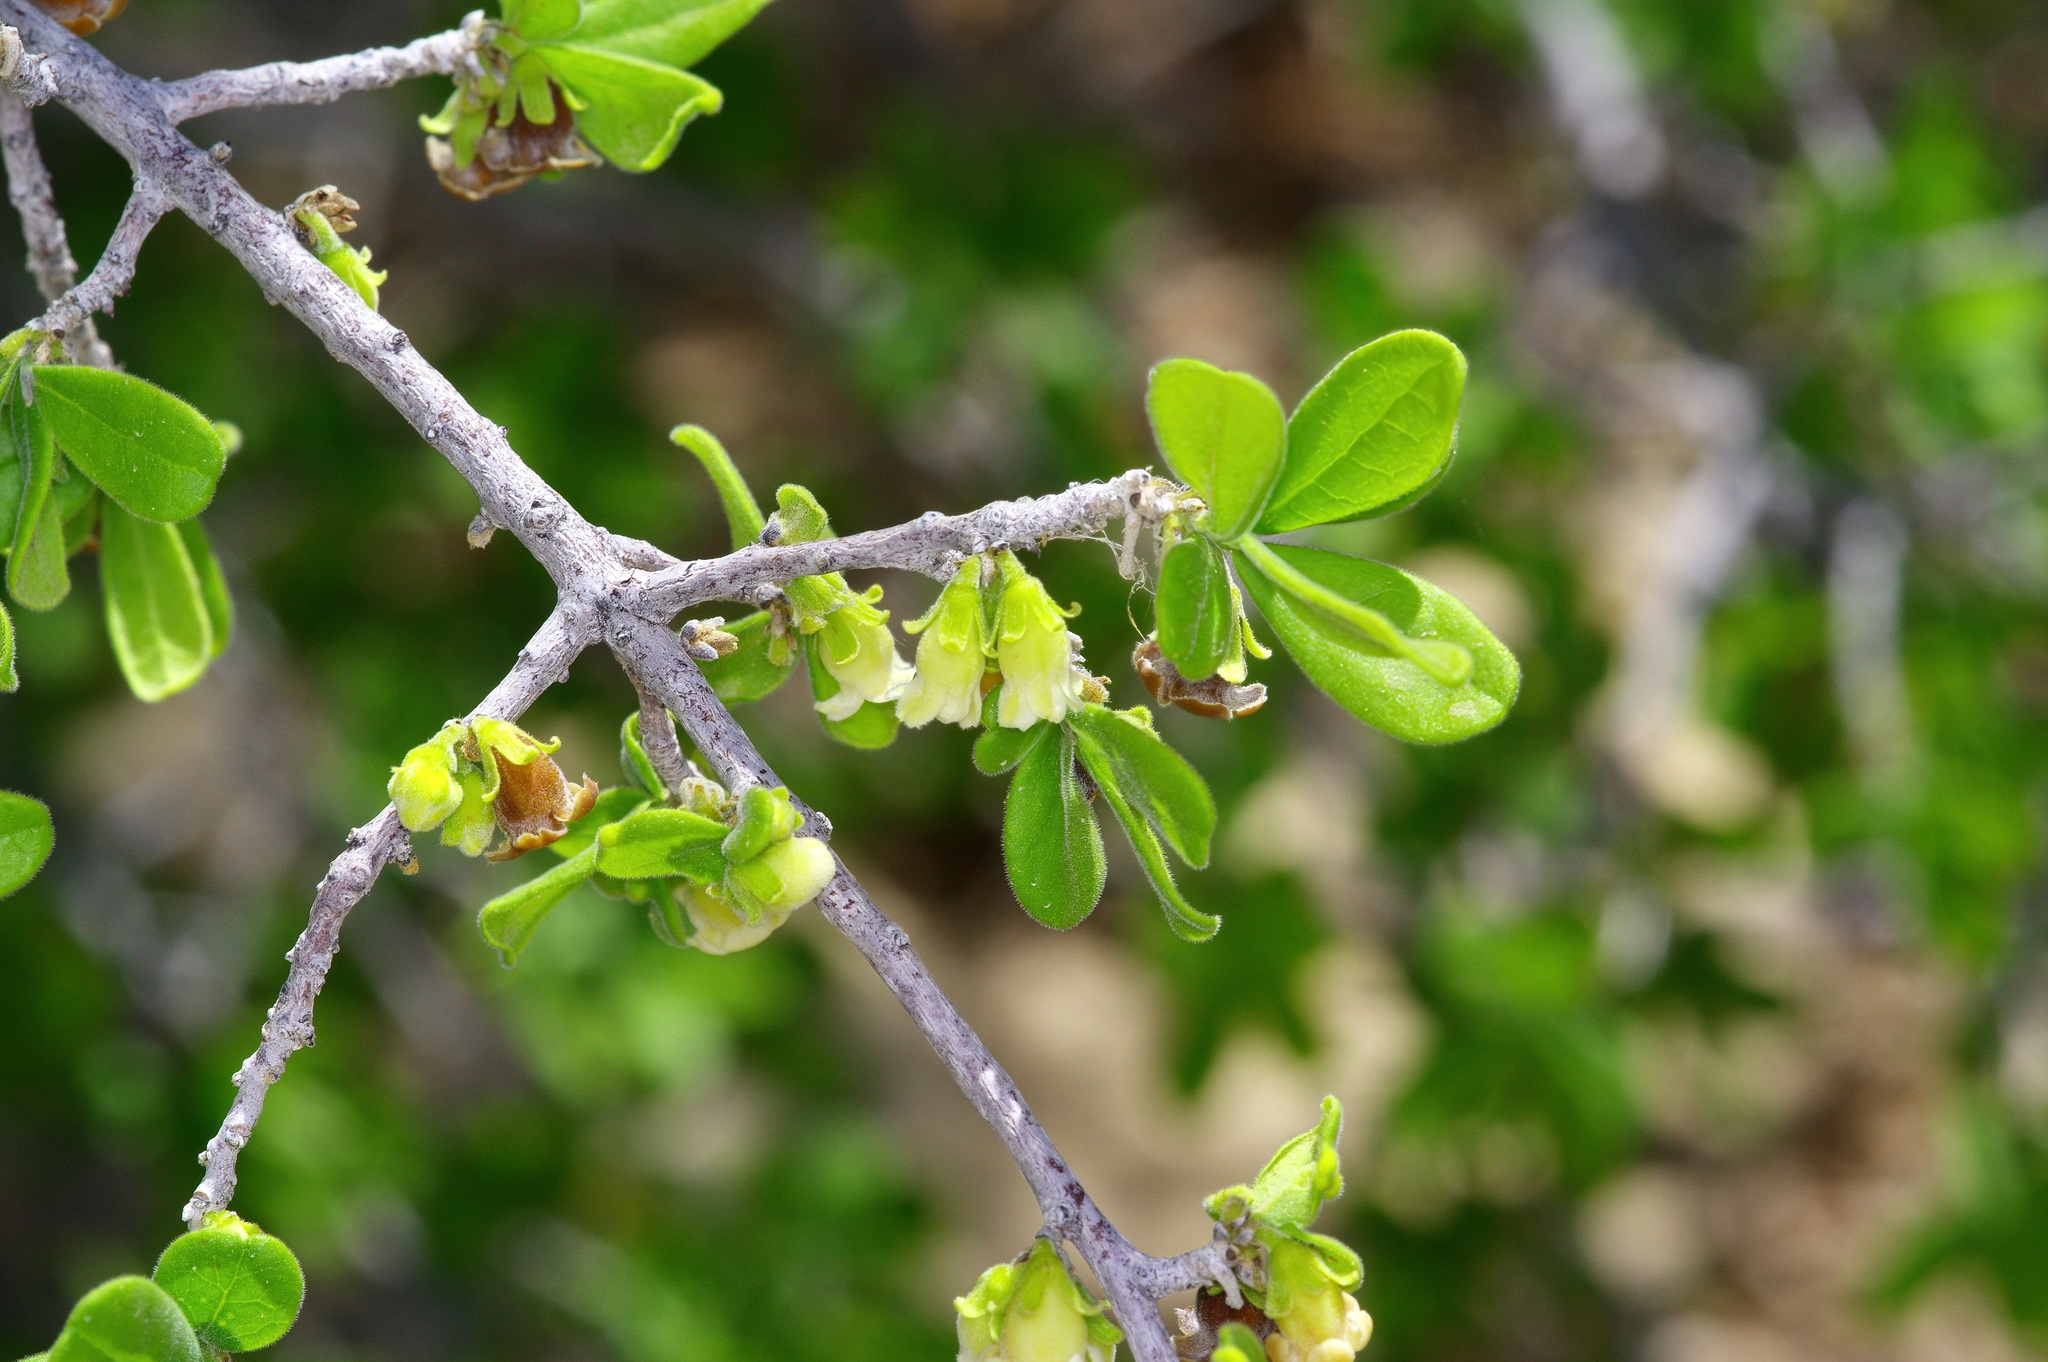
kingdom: Plantae
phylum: Tracheophyta
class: Magnoliopsida
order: Ericales
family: Ebenaceae
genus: Diospyros
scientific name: Diospyros texana
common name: Texas persimmon
